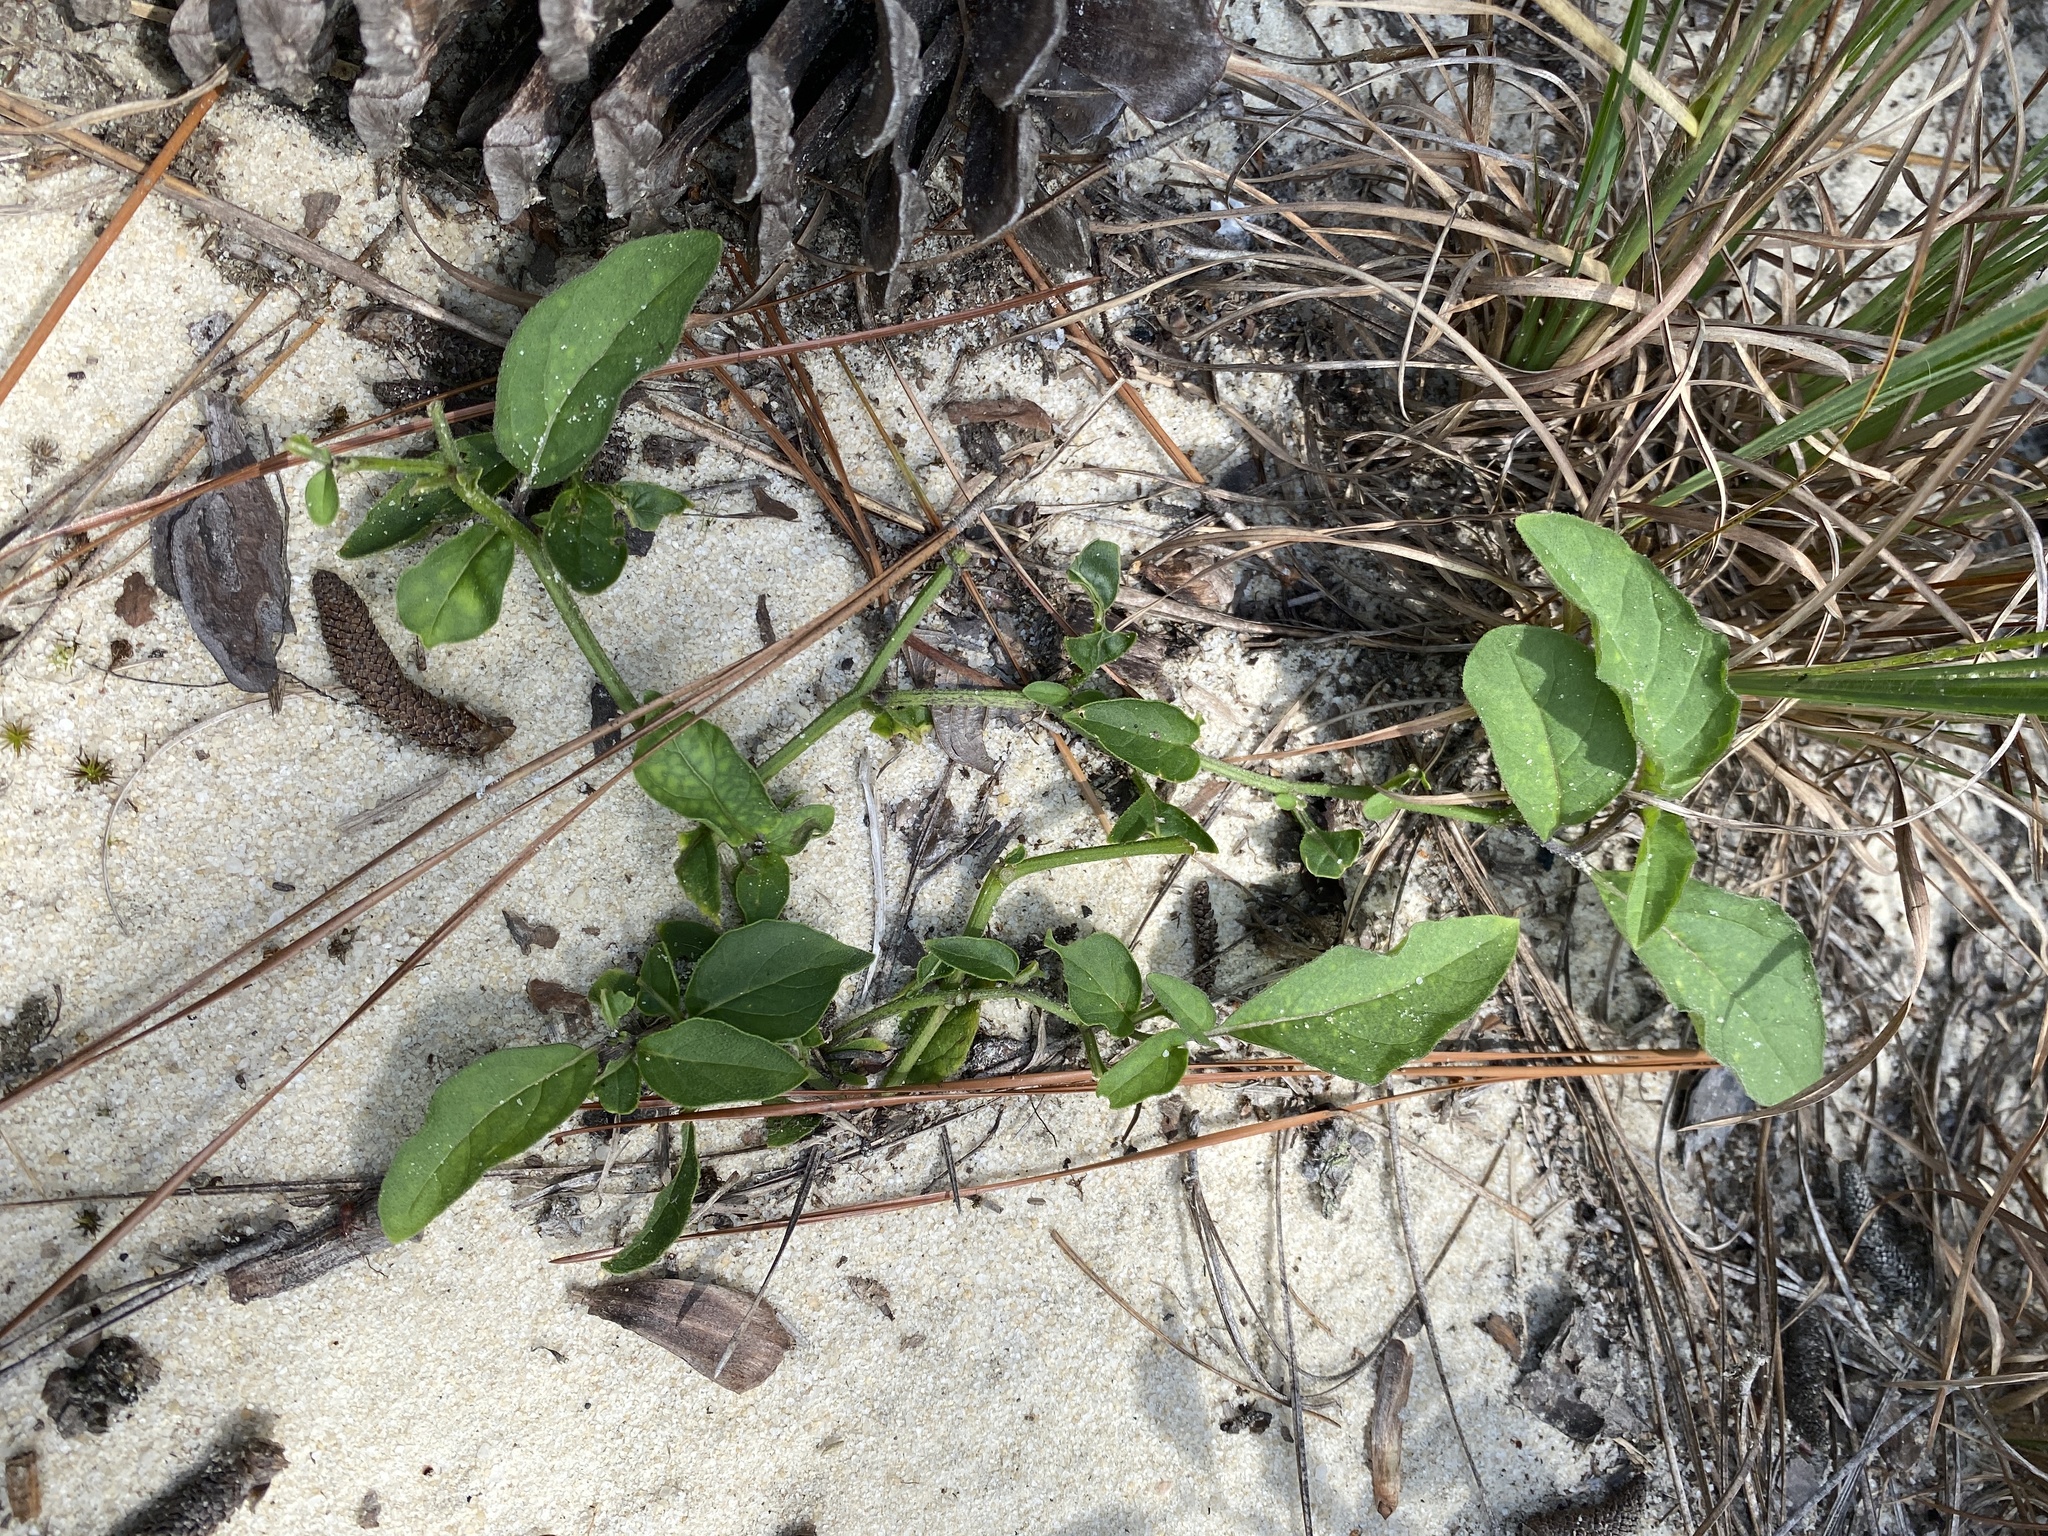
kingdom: Plantae
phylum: Tracheophyta
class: Magnoliopsida
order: Solanales
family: Solanaceae
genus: Physalis
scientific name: Physalis lanceolata
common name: Lance-leaved ground-cherry
